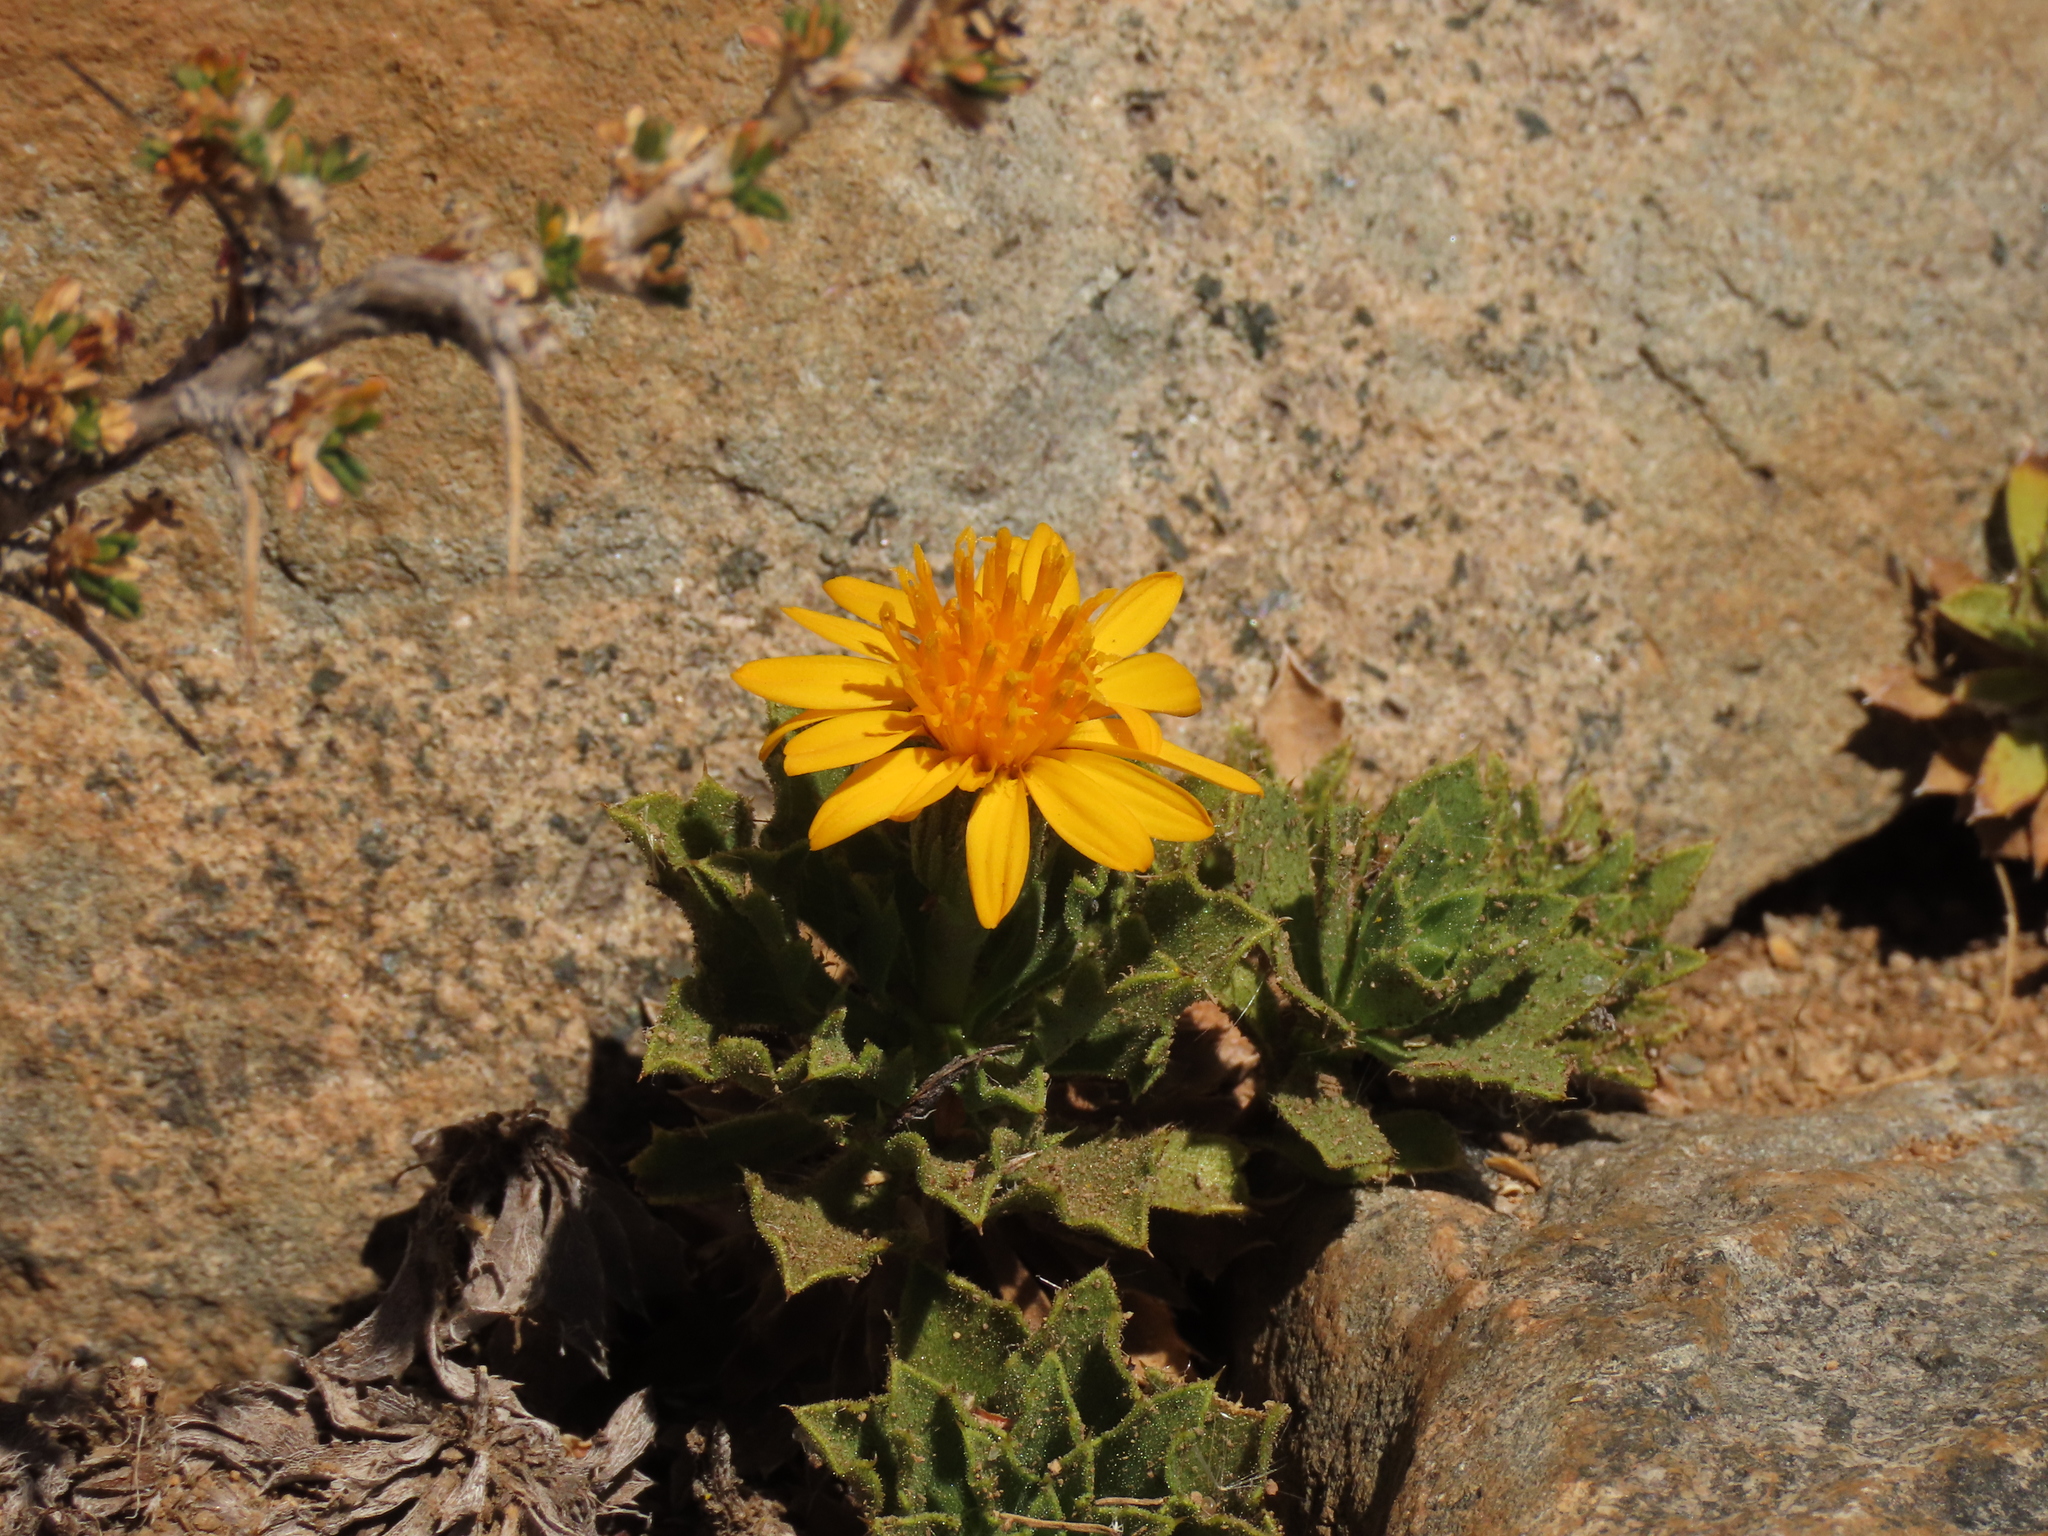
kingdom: Plantae
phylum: Tracheophyta
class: Magnoliopsida
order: Asterales
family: Asteraceae
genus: Haplopappus
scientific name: Haplopappus anthylloides
